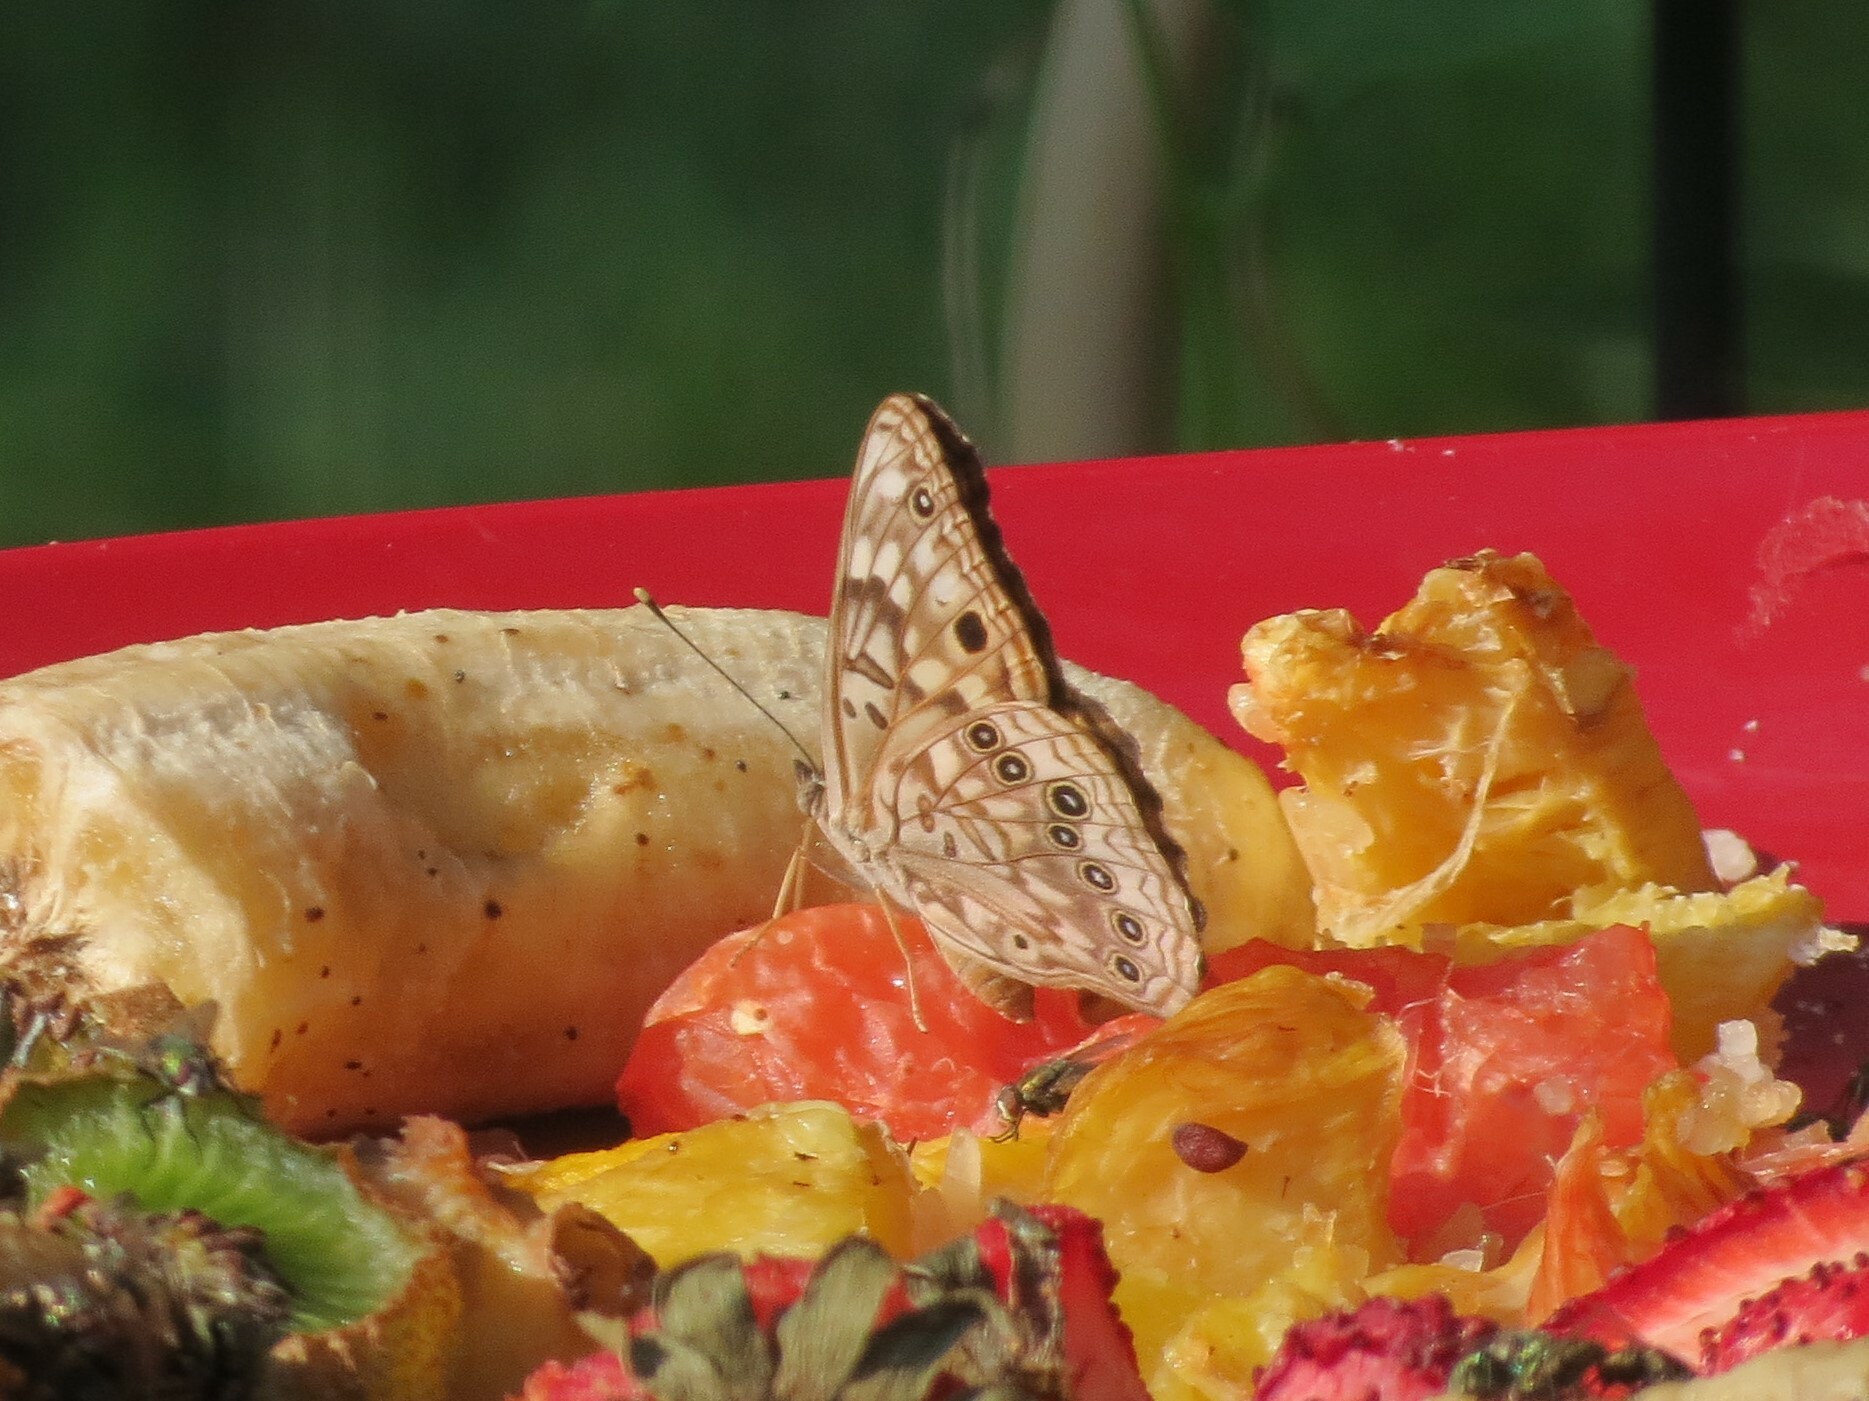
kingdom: Animalia
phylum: Arthropoda
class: Insecta
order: Lepidoptera
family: Nymphalidae
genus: Asterocampa
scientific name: Asterocampa celtis
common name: Hackberry emperor
